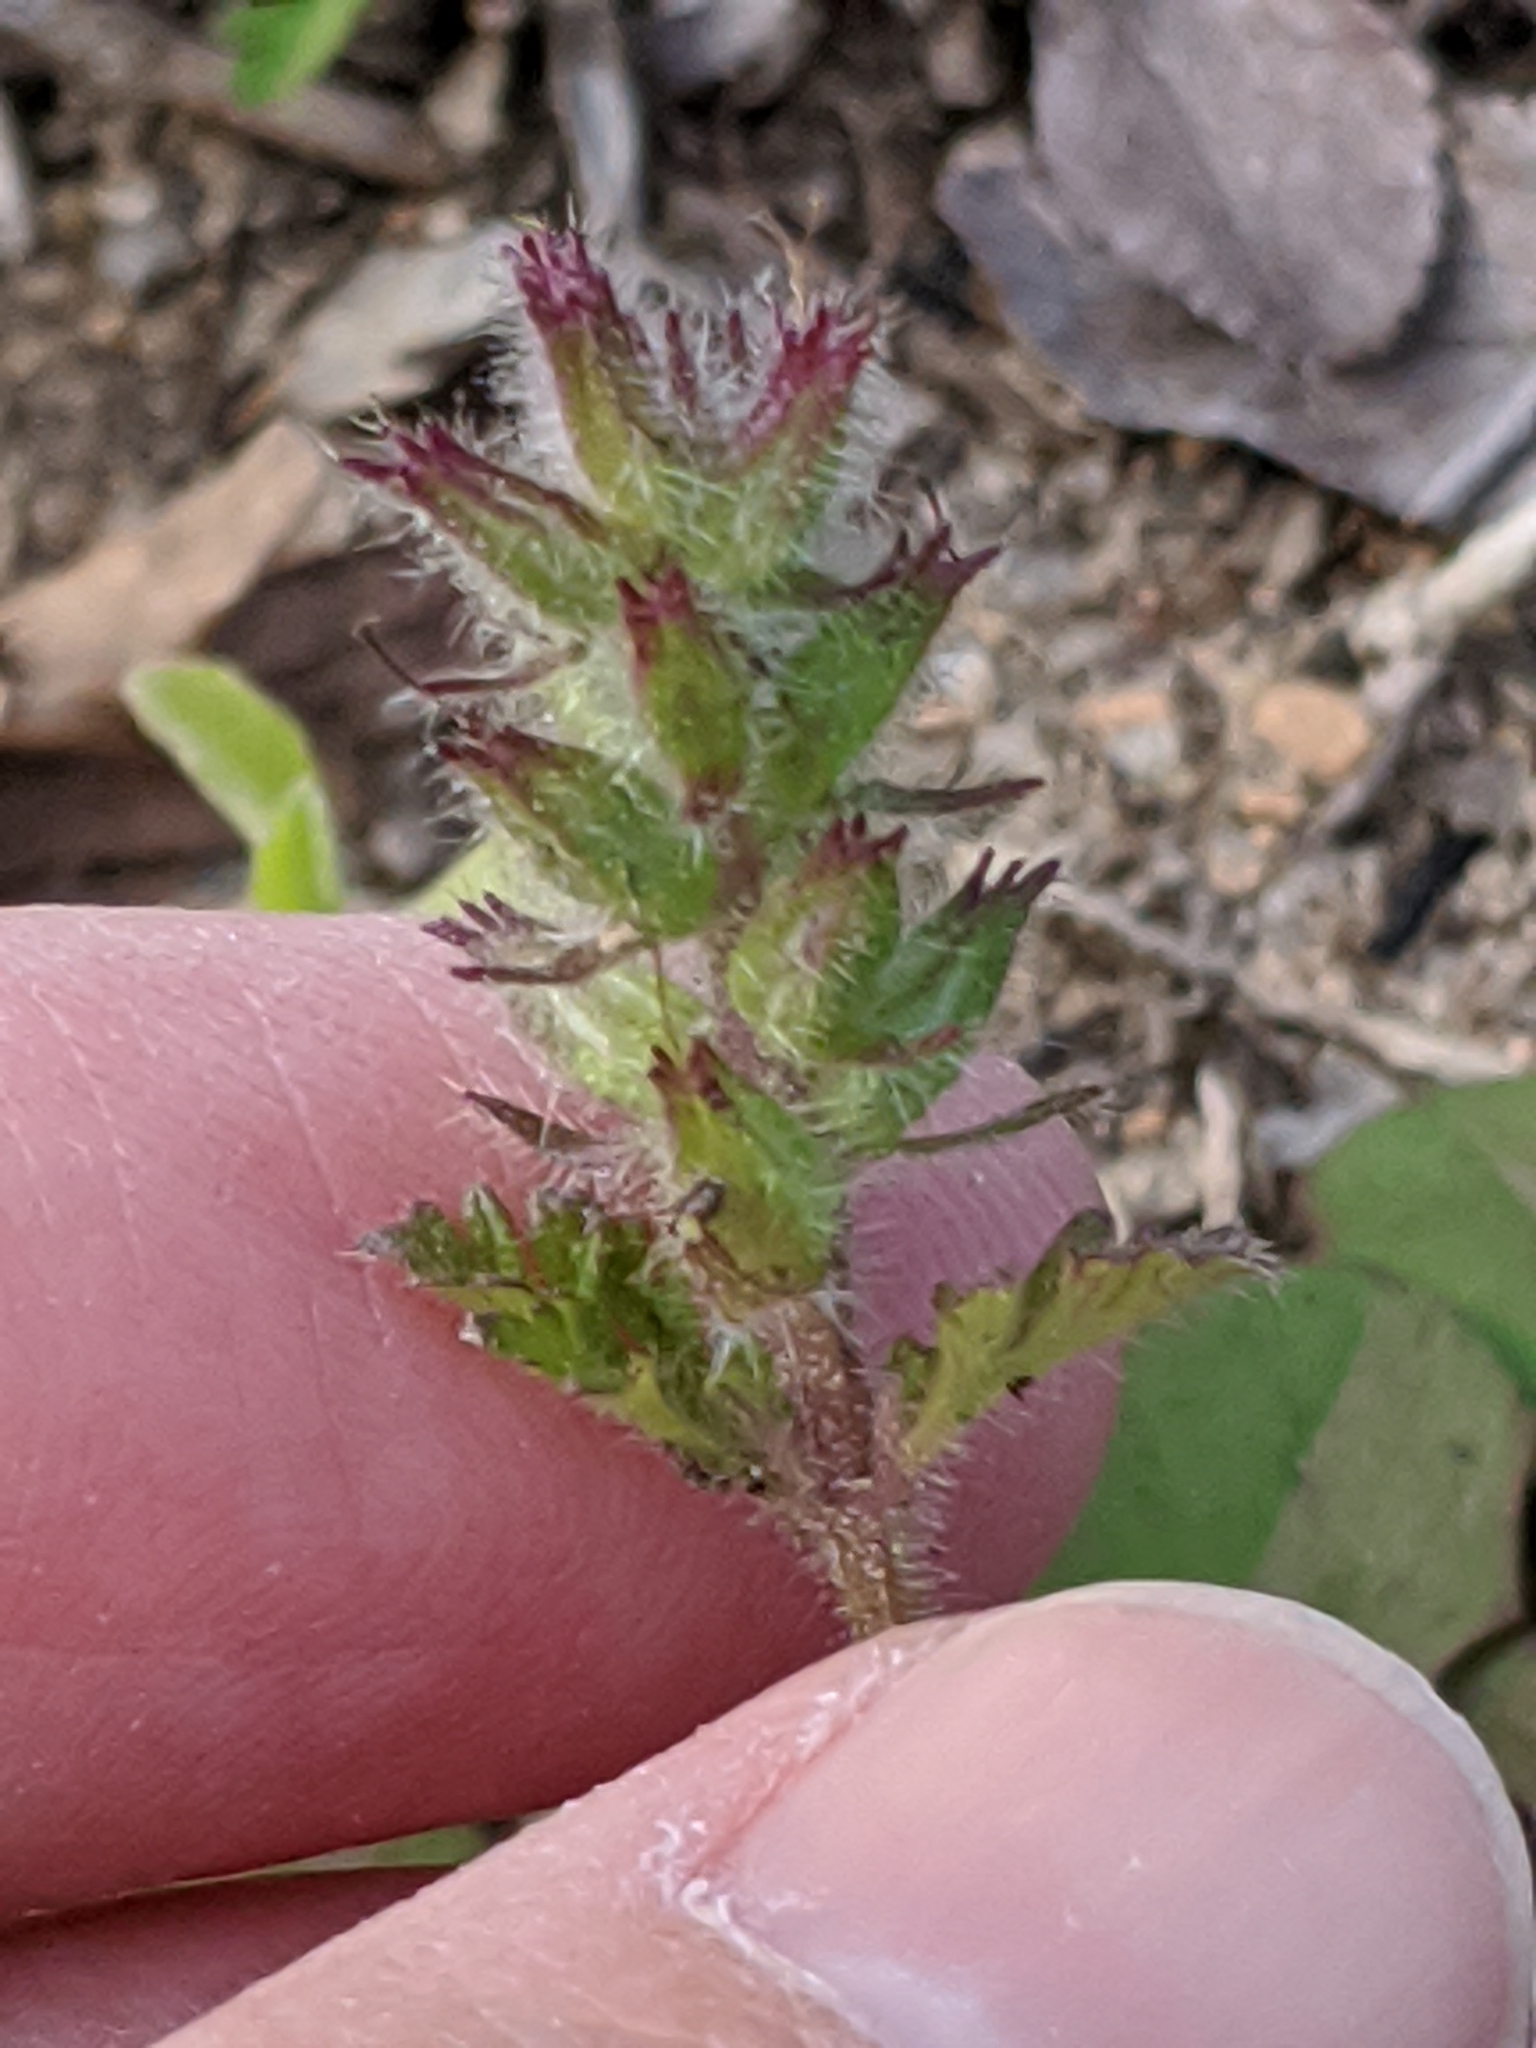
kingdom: Plantae
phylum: Tracheophyta
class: Magnoliopsida
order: Lamiales
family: Verbenaceae
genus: Verbena
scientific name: Verbena pumila
